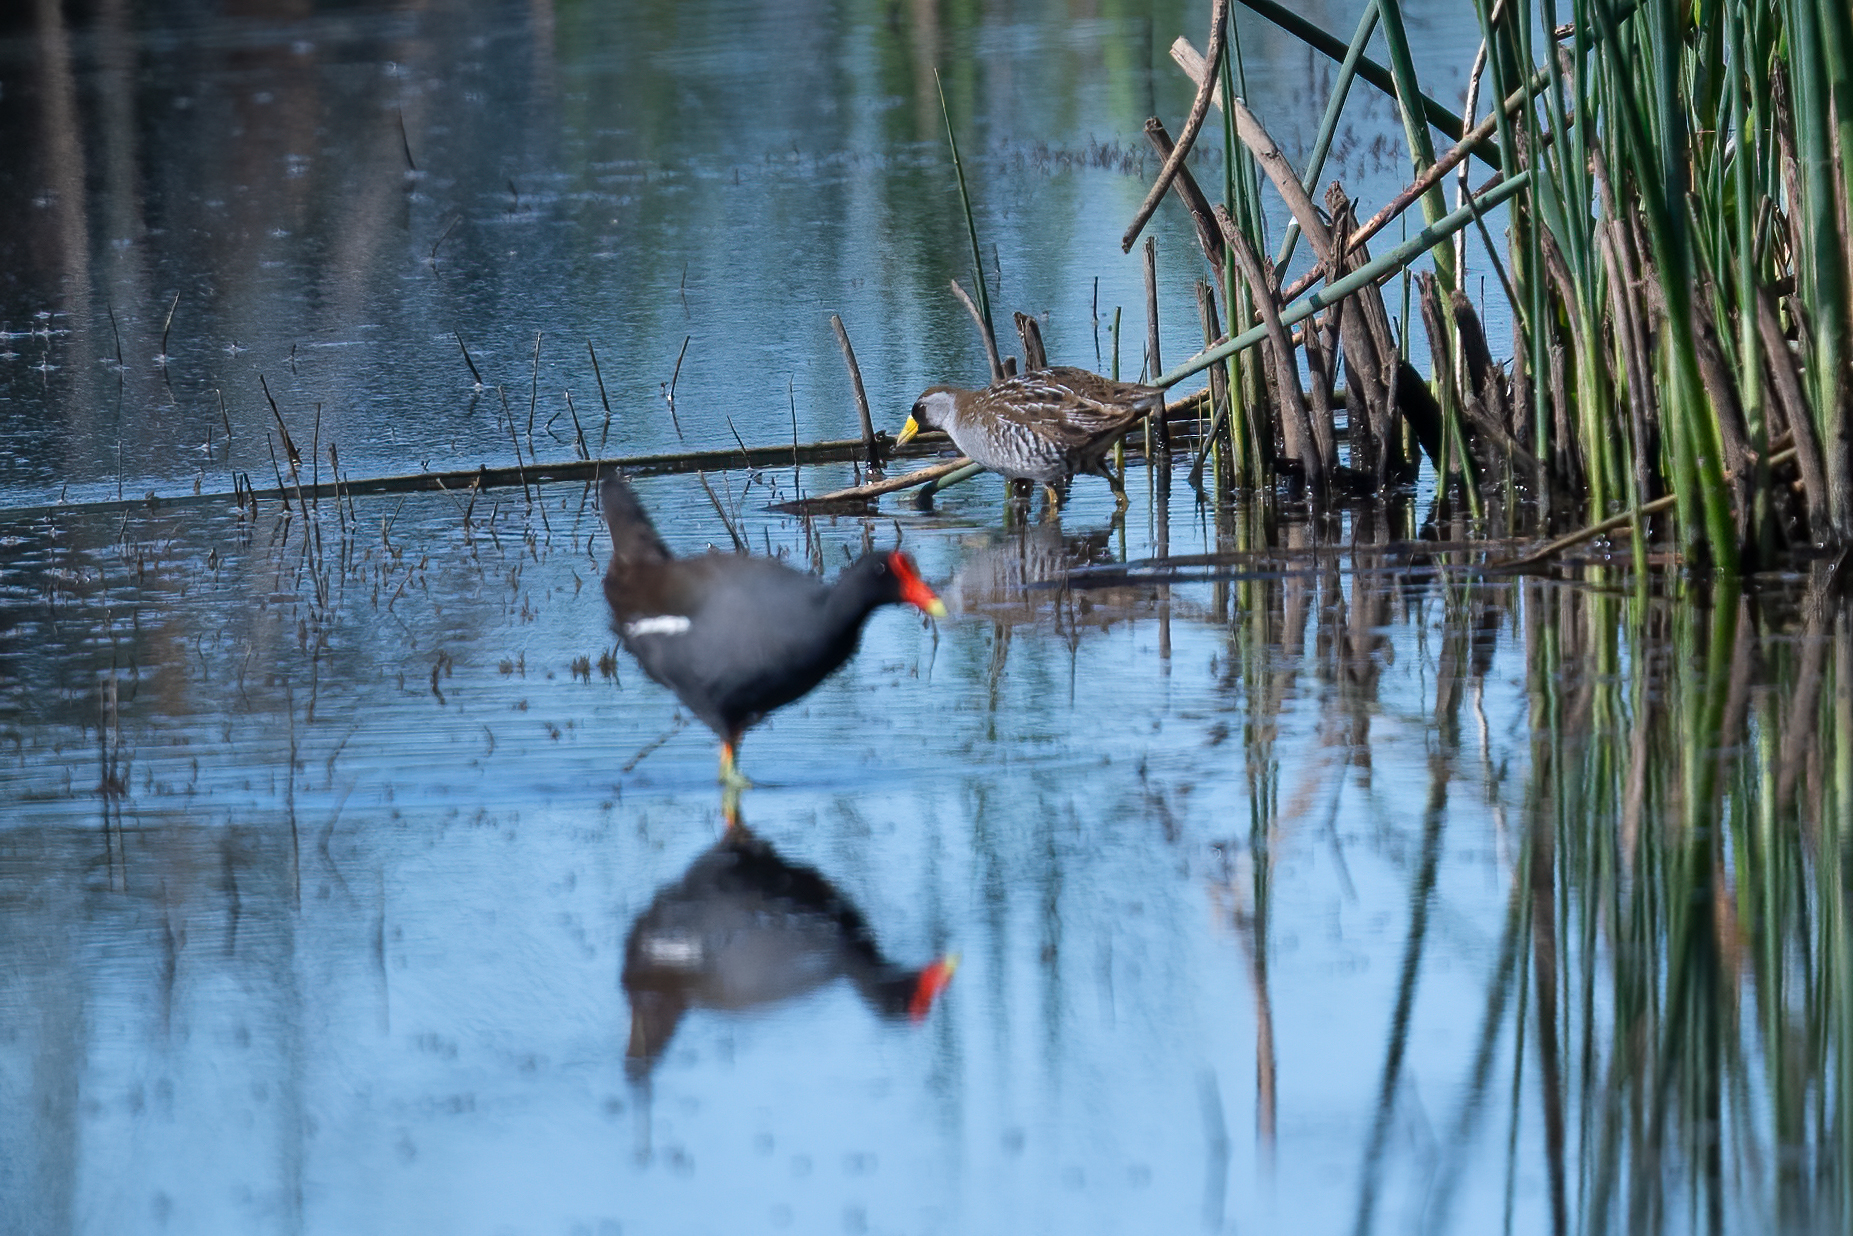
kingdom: Animalia
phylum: Chordata
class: Aves
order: Gruiformes
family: Rallidae
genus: Porzana
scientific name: Porzana carolina
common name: Sora
